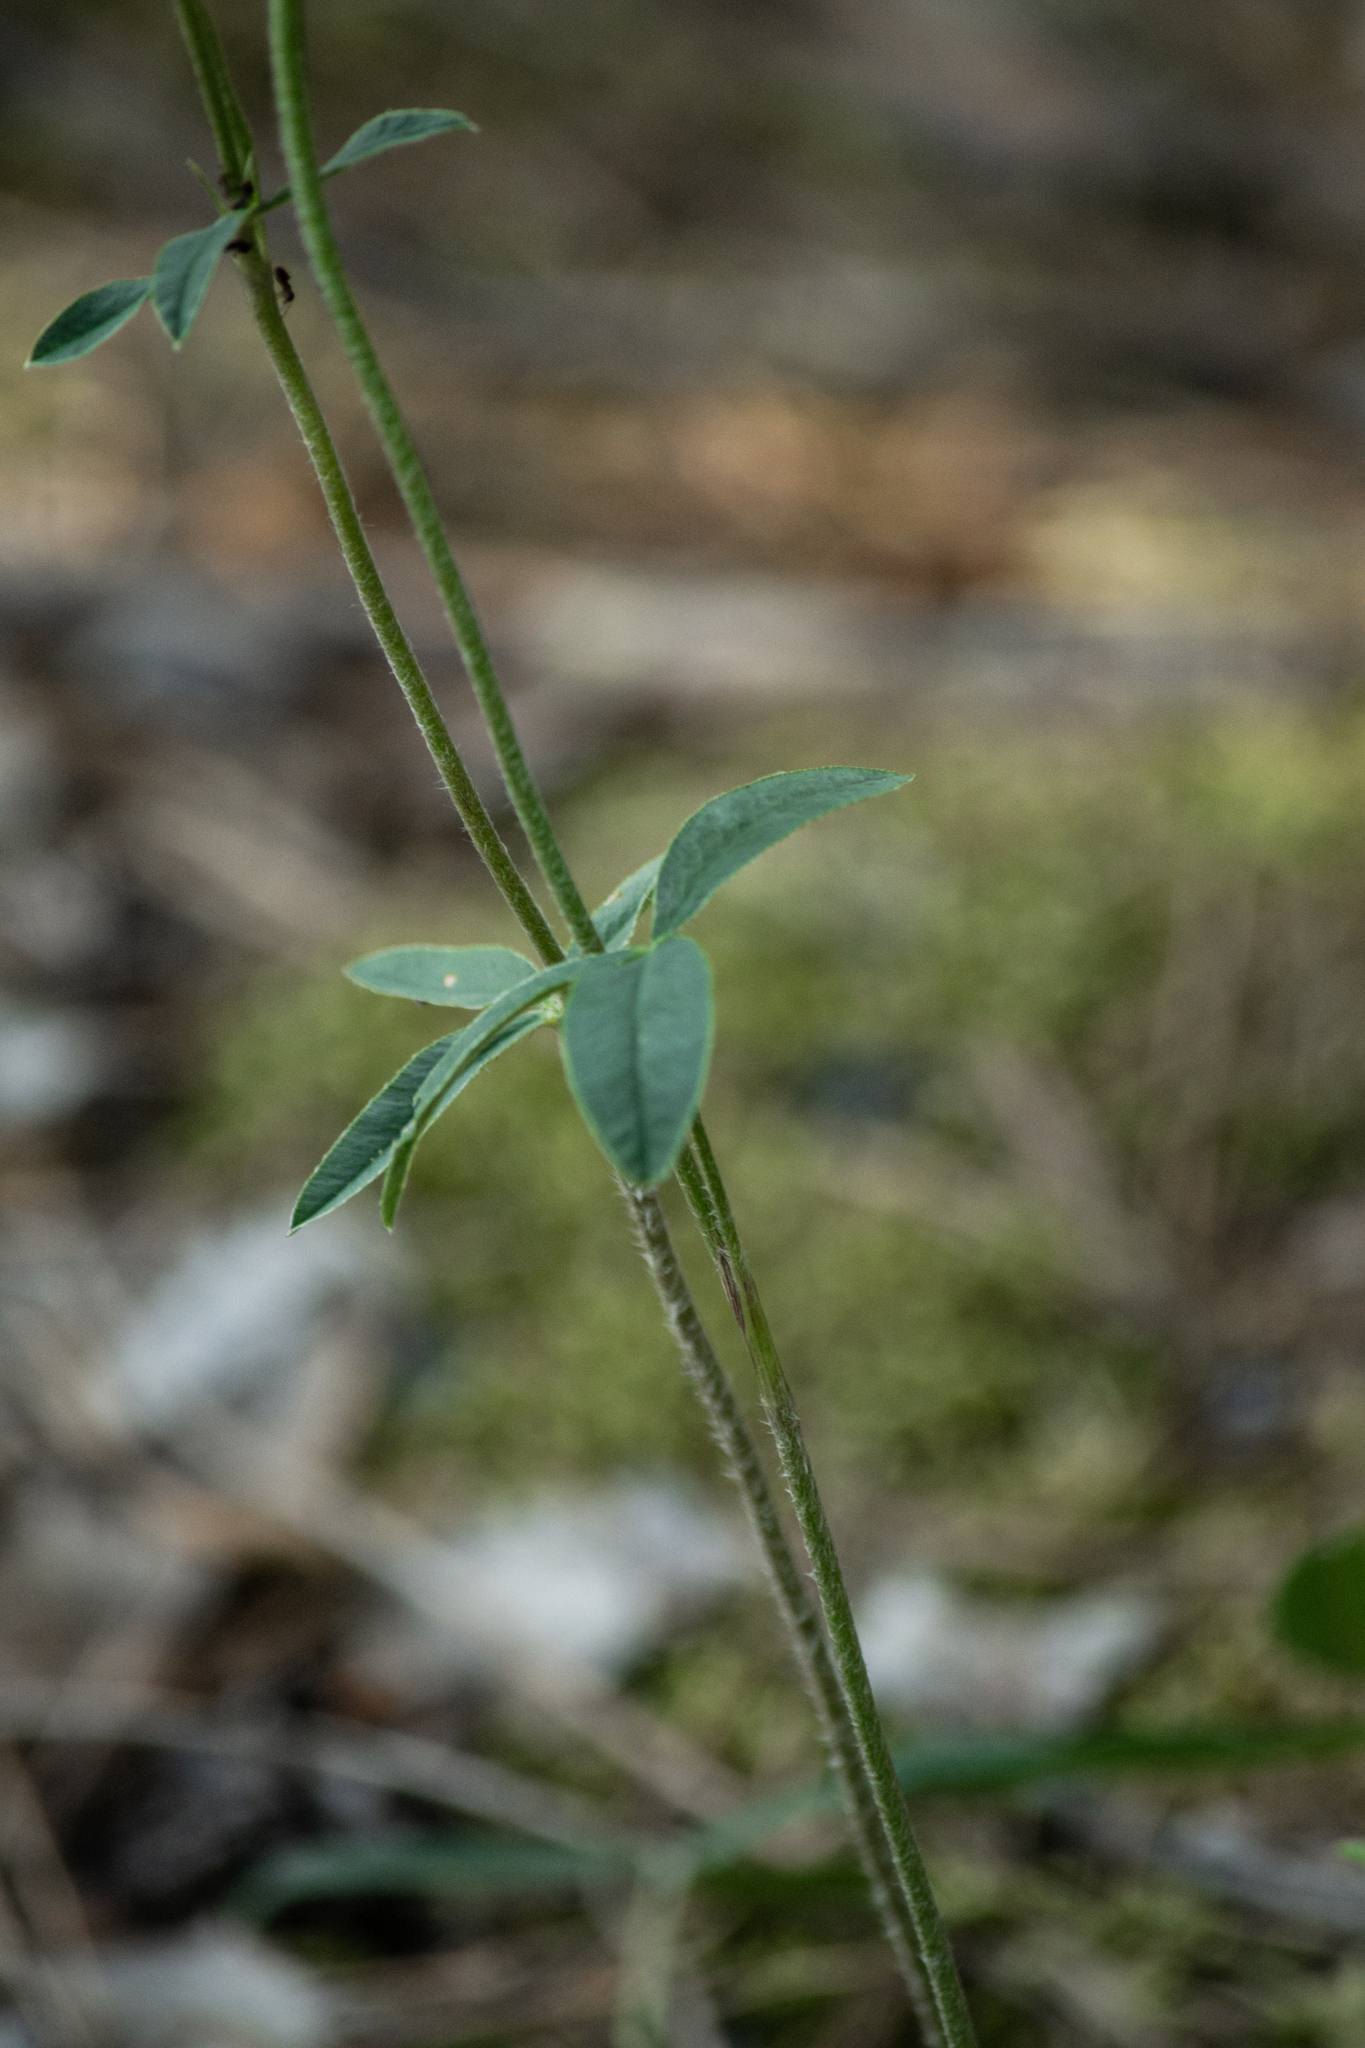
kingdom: Plantae
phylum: Tracheophyta
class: Magnoliopsida
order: Fabales
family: Fabaceae
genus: Trifolium
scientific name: Trifolium montanum
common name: Mountain clover
